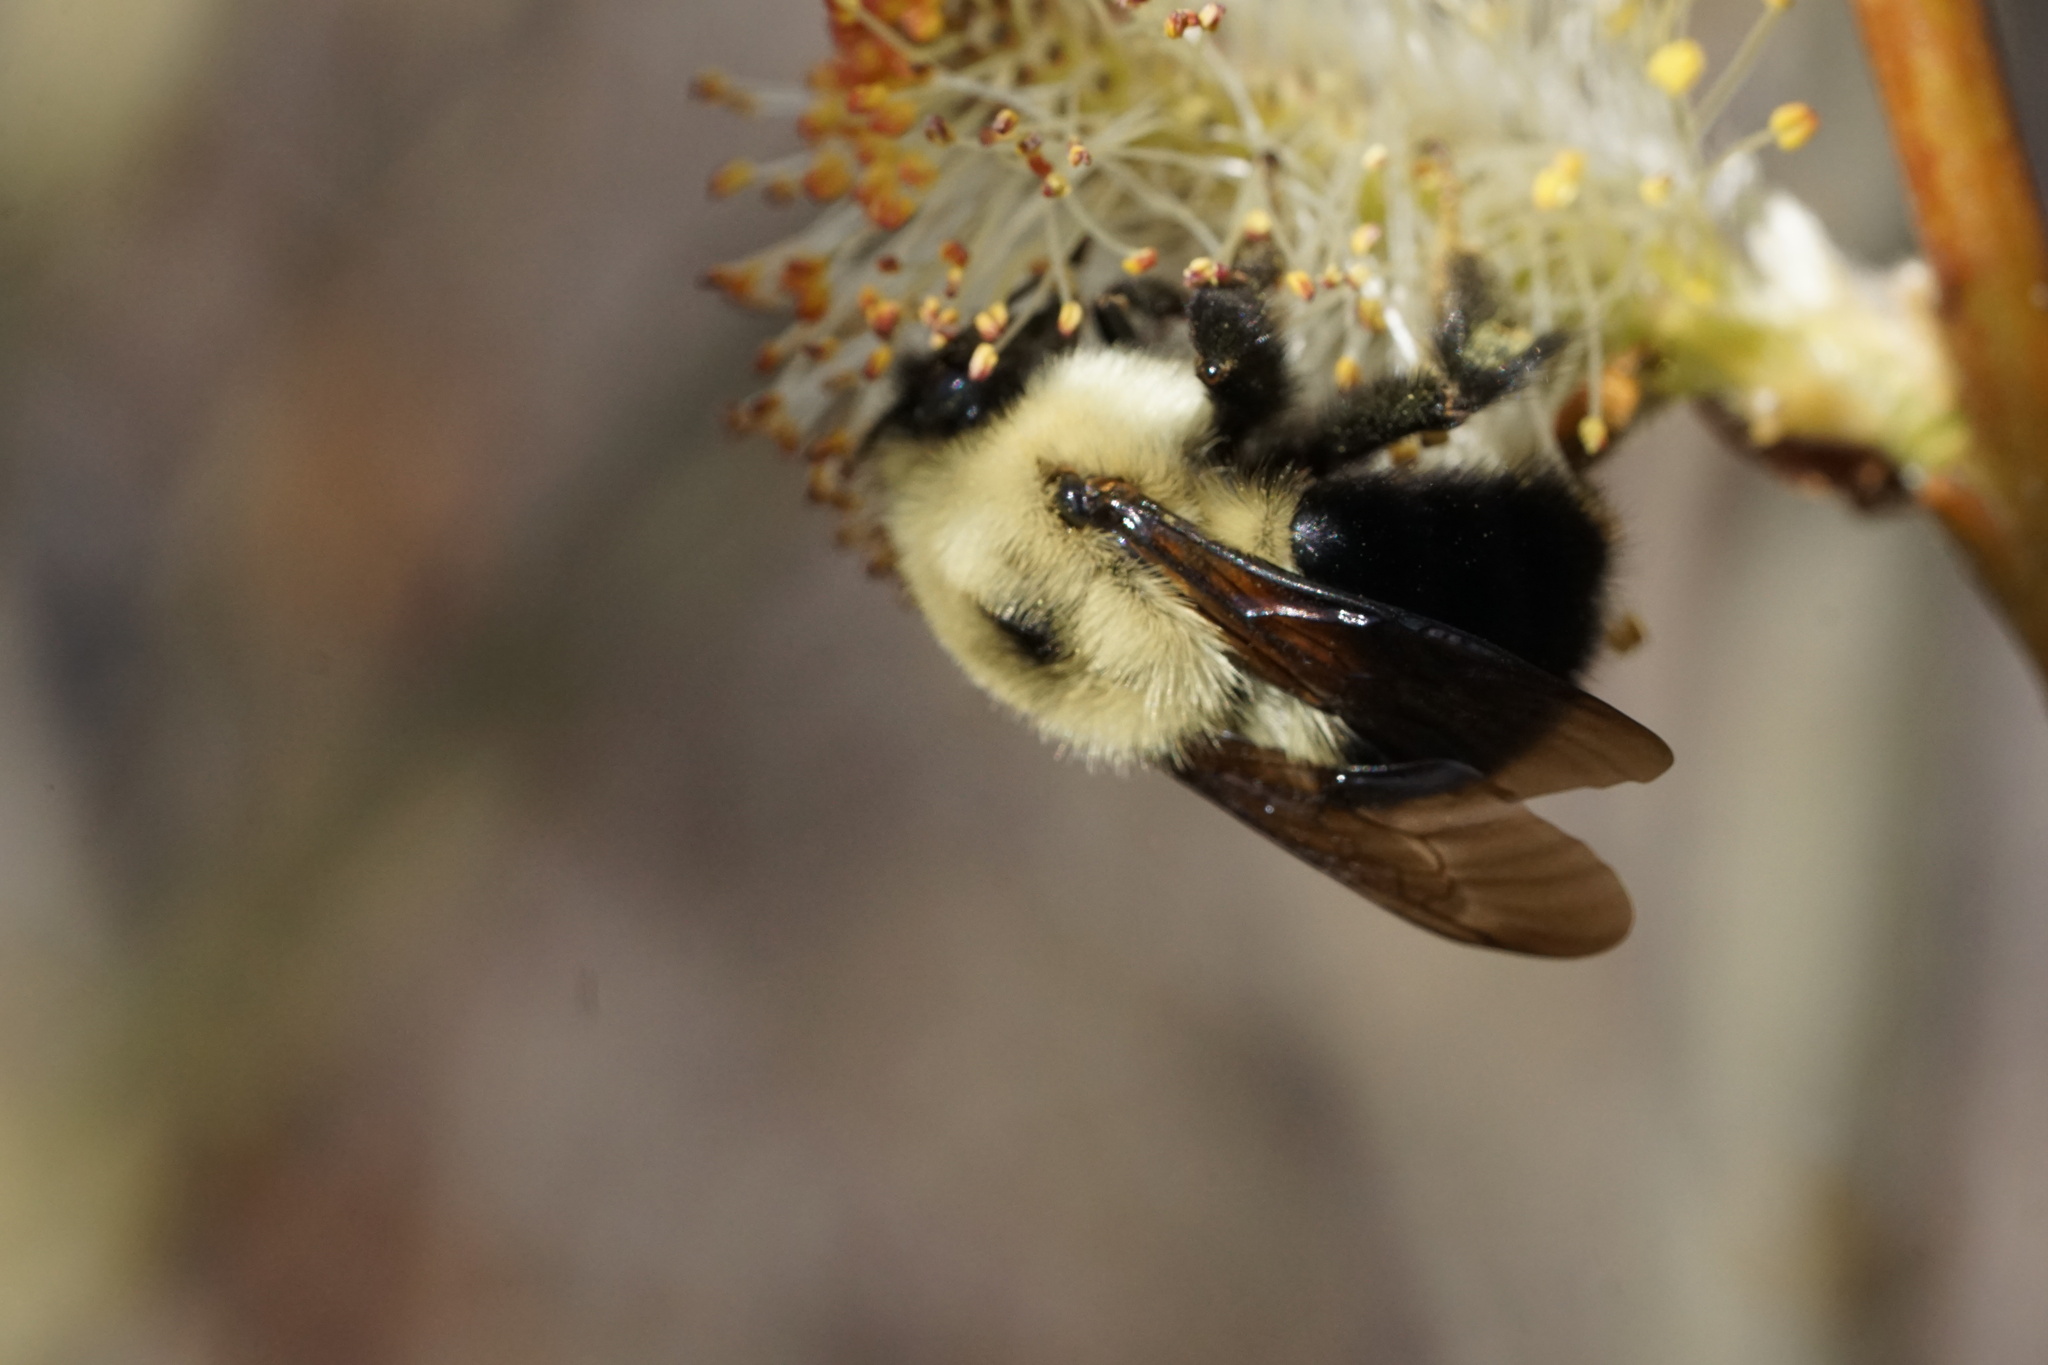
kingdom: Animalia
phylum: Arthropoda
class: Insecta
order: Hymenoptera
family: Apidae
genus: Bombus
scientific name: Bombus bimaculatus
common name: Two-spotted bumble bee
